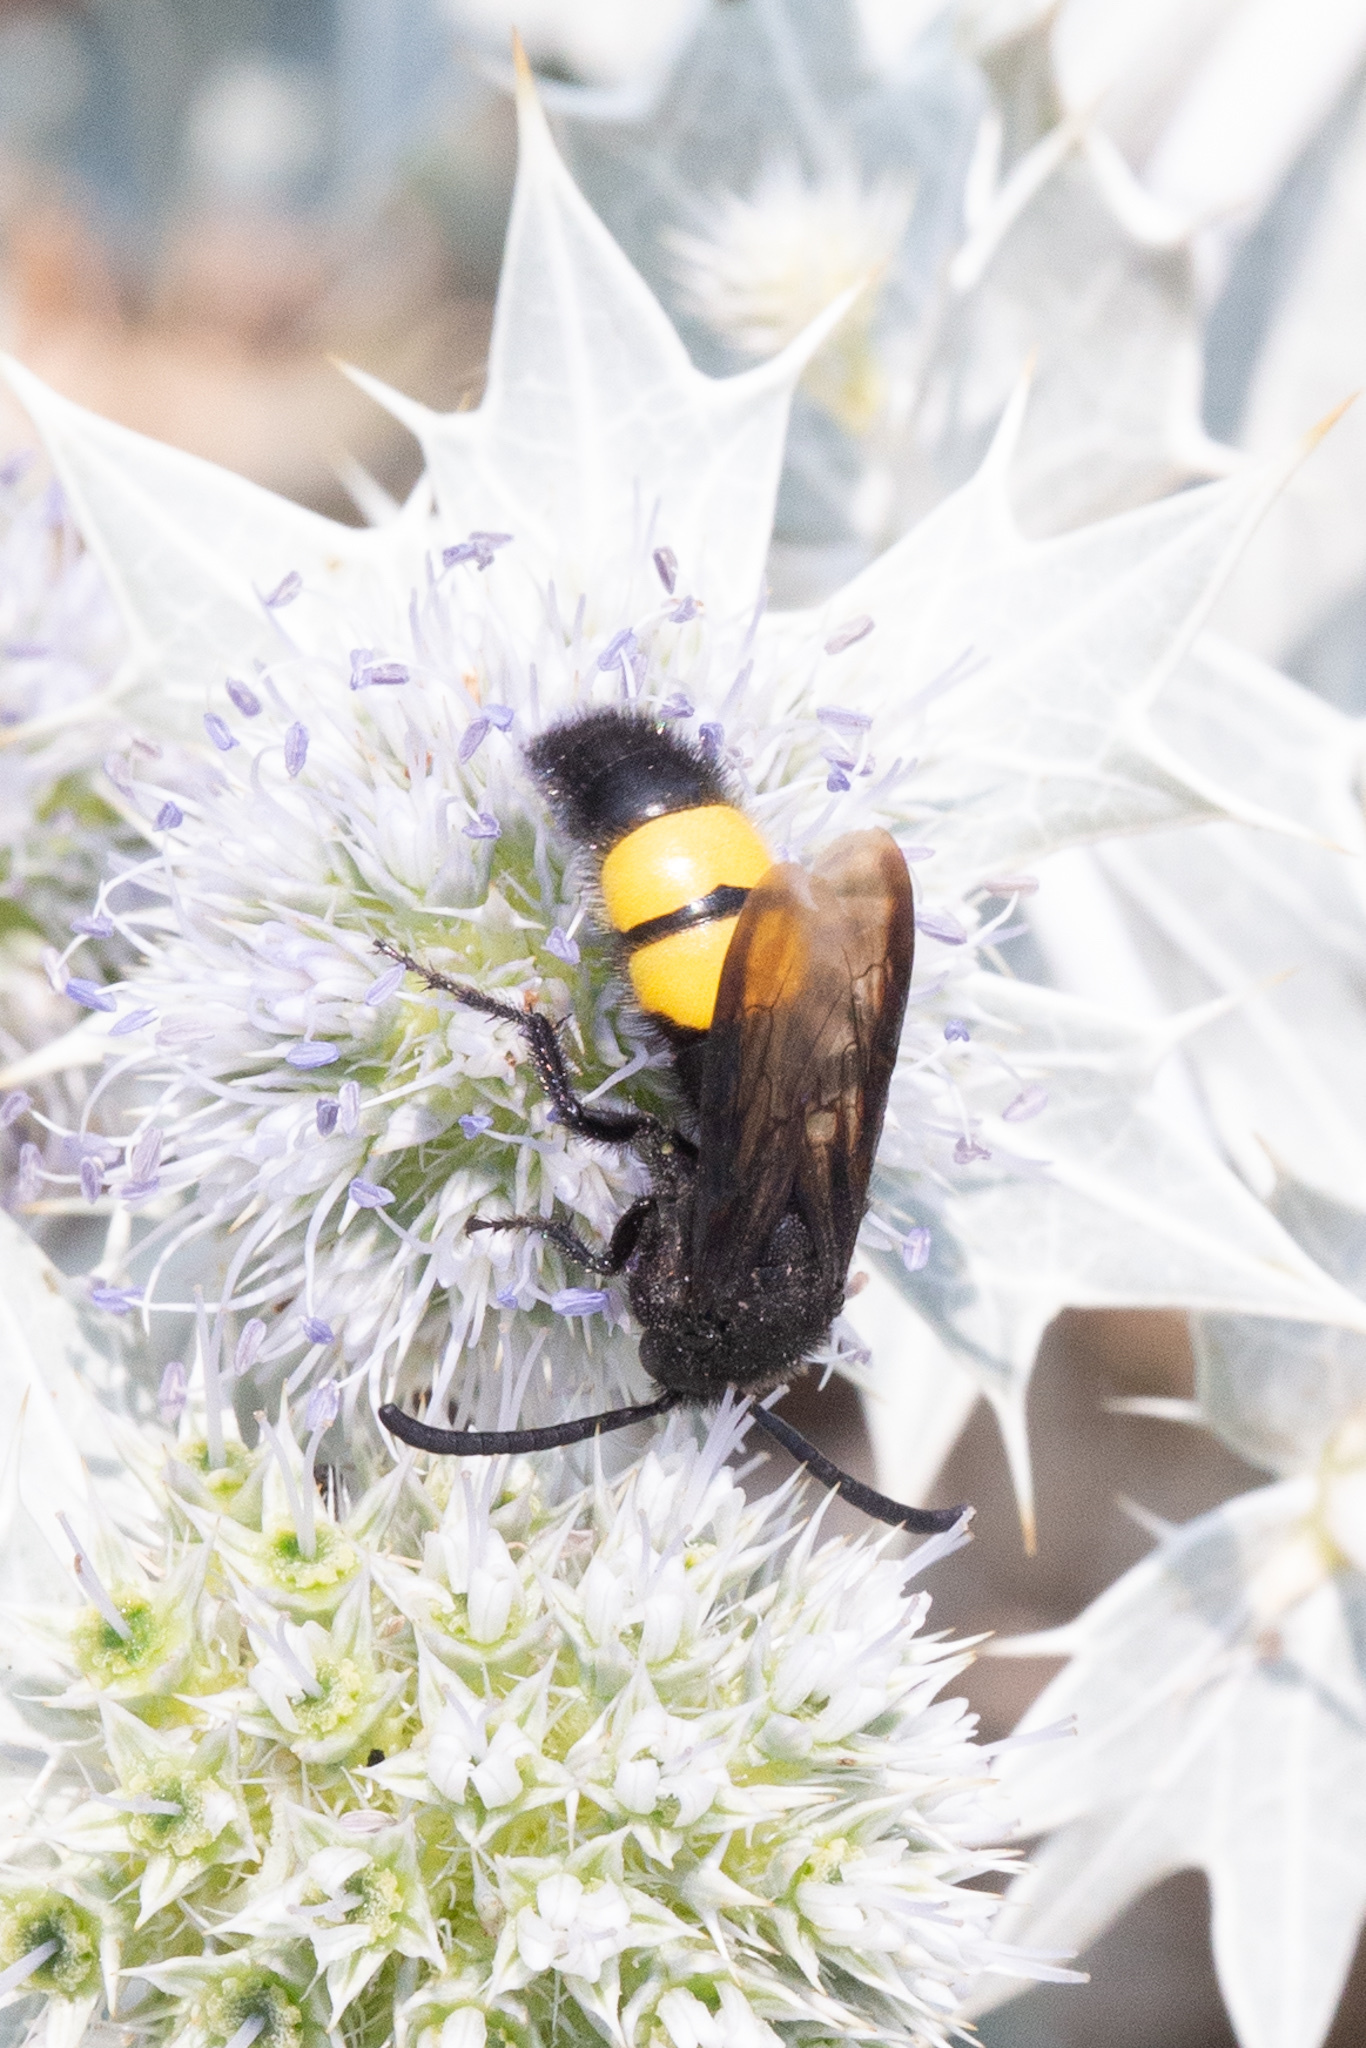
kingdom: Animalia
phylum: Arthropoda
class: Insecta
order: Hymenoptera
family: Scoliidae
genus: Scolia
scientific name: Scolia hirta
